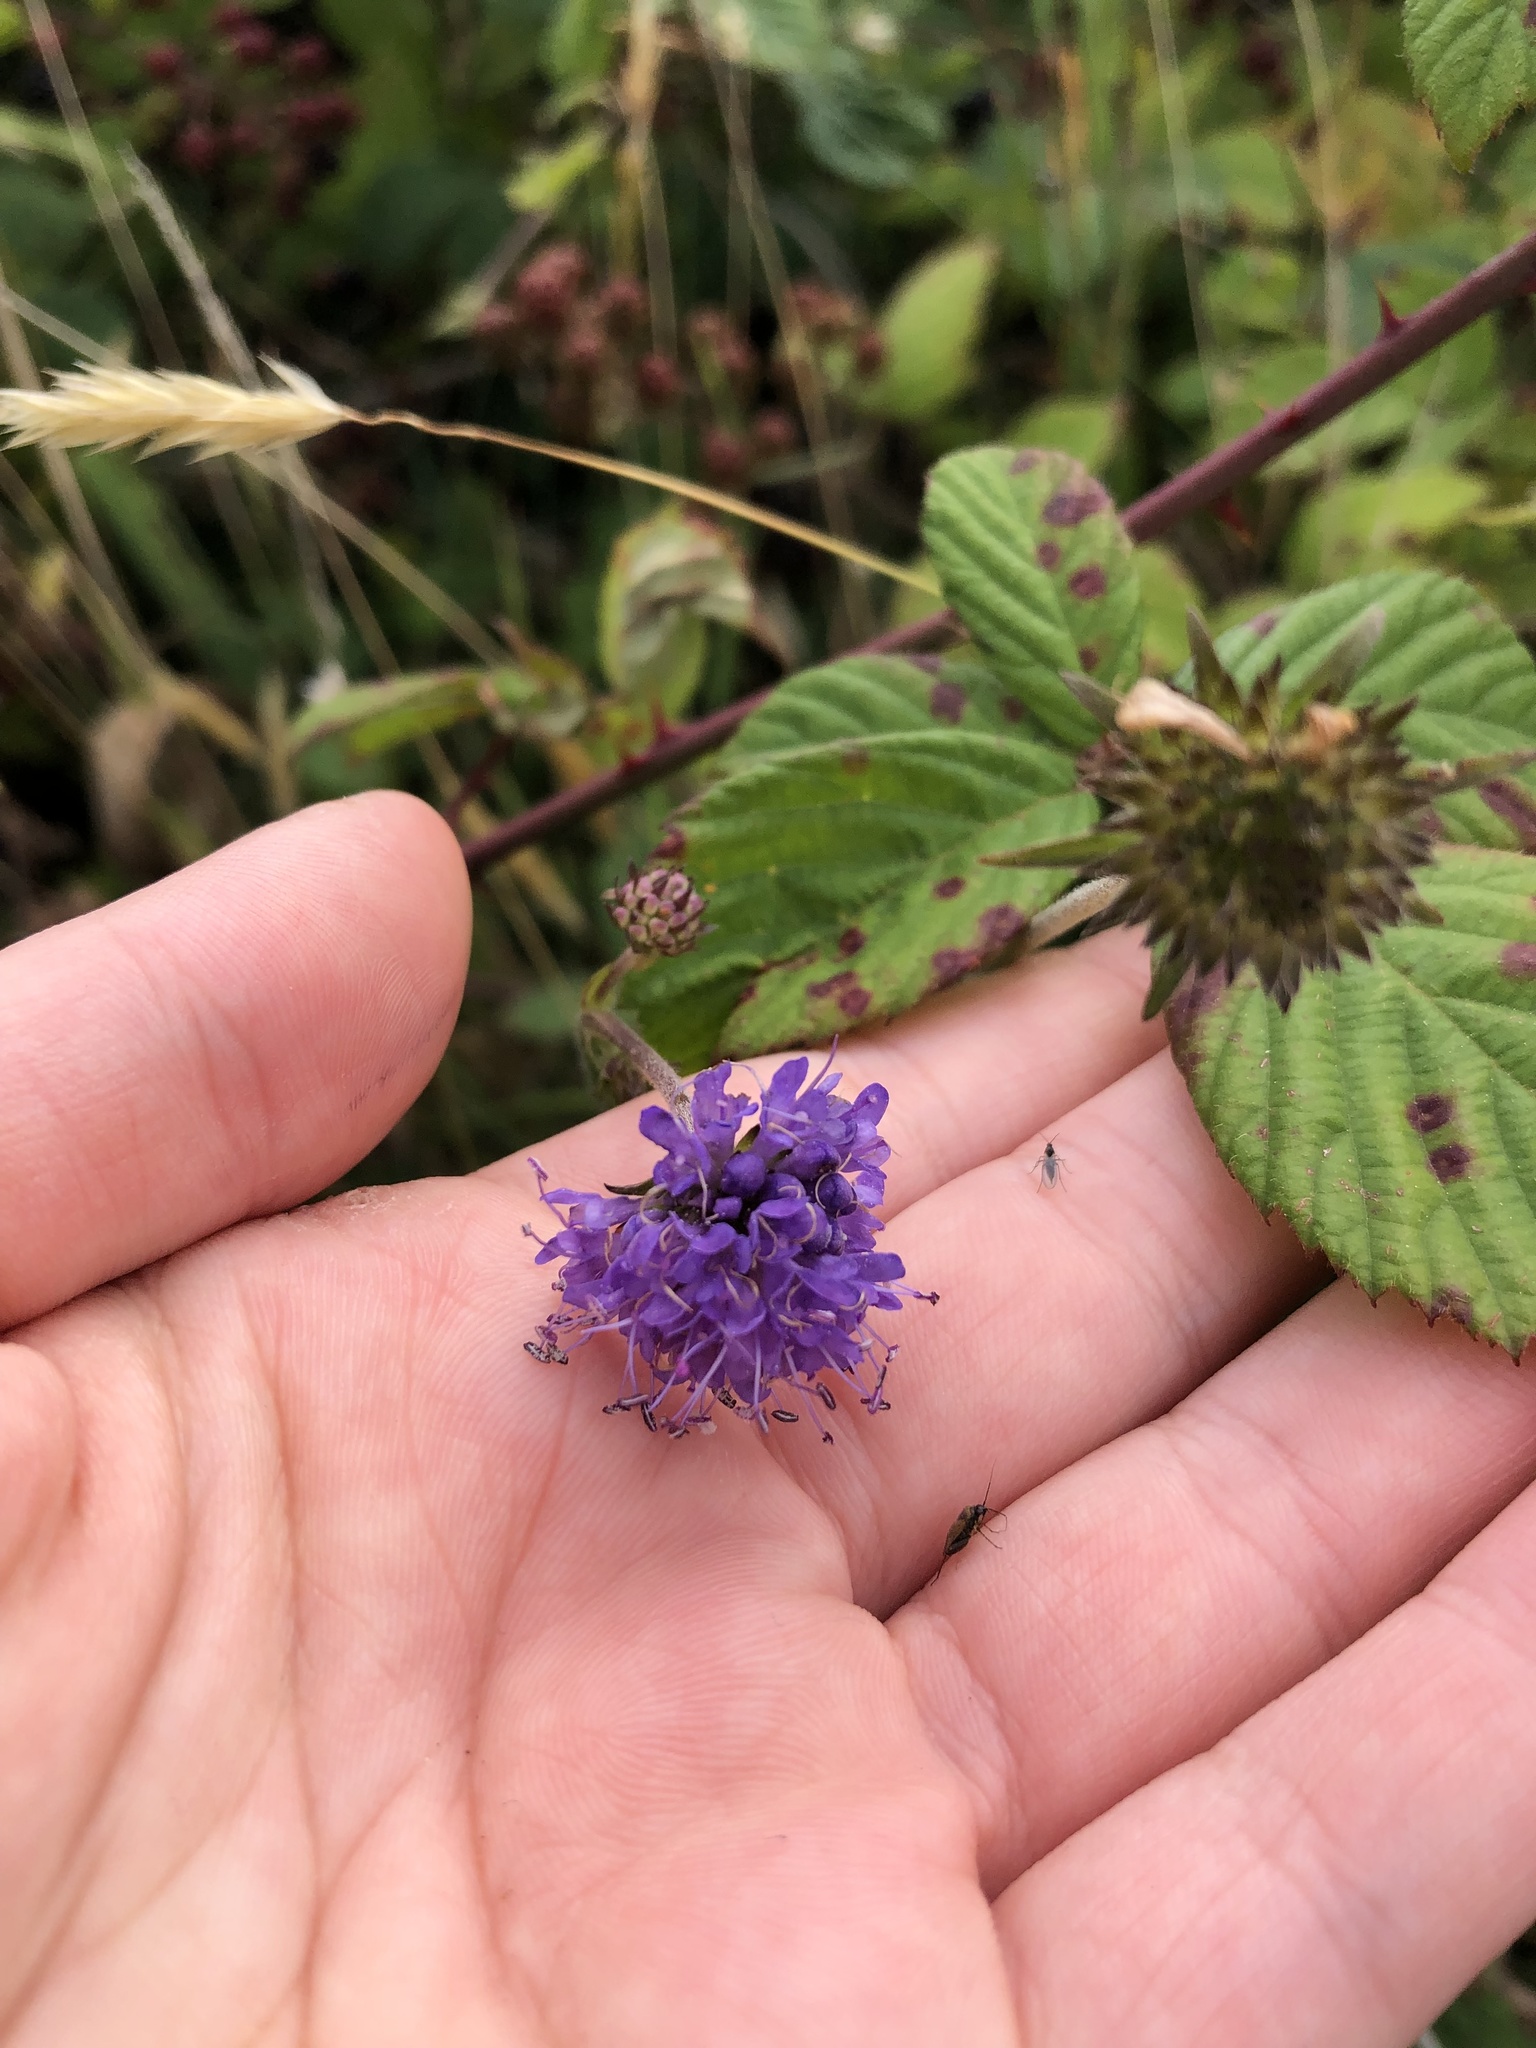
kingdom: Plantae
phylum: Tracheophyta
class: Magnoliopsida
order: Dipsacales
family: Caprifoliaceae
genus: Succisa
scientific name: Succisa pratensis
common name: Devil's-bit
